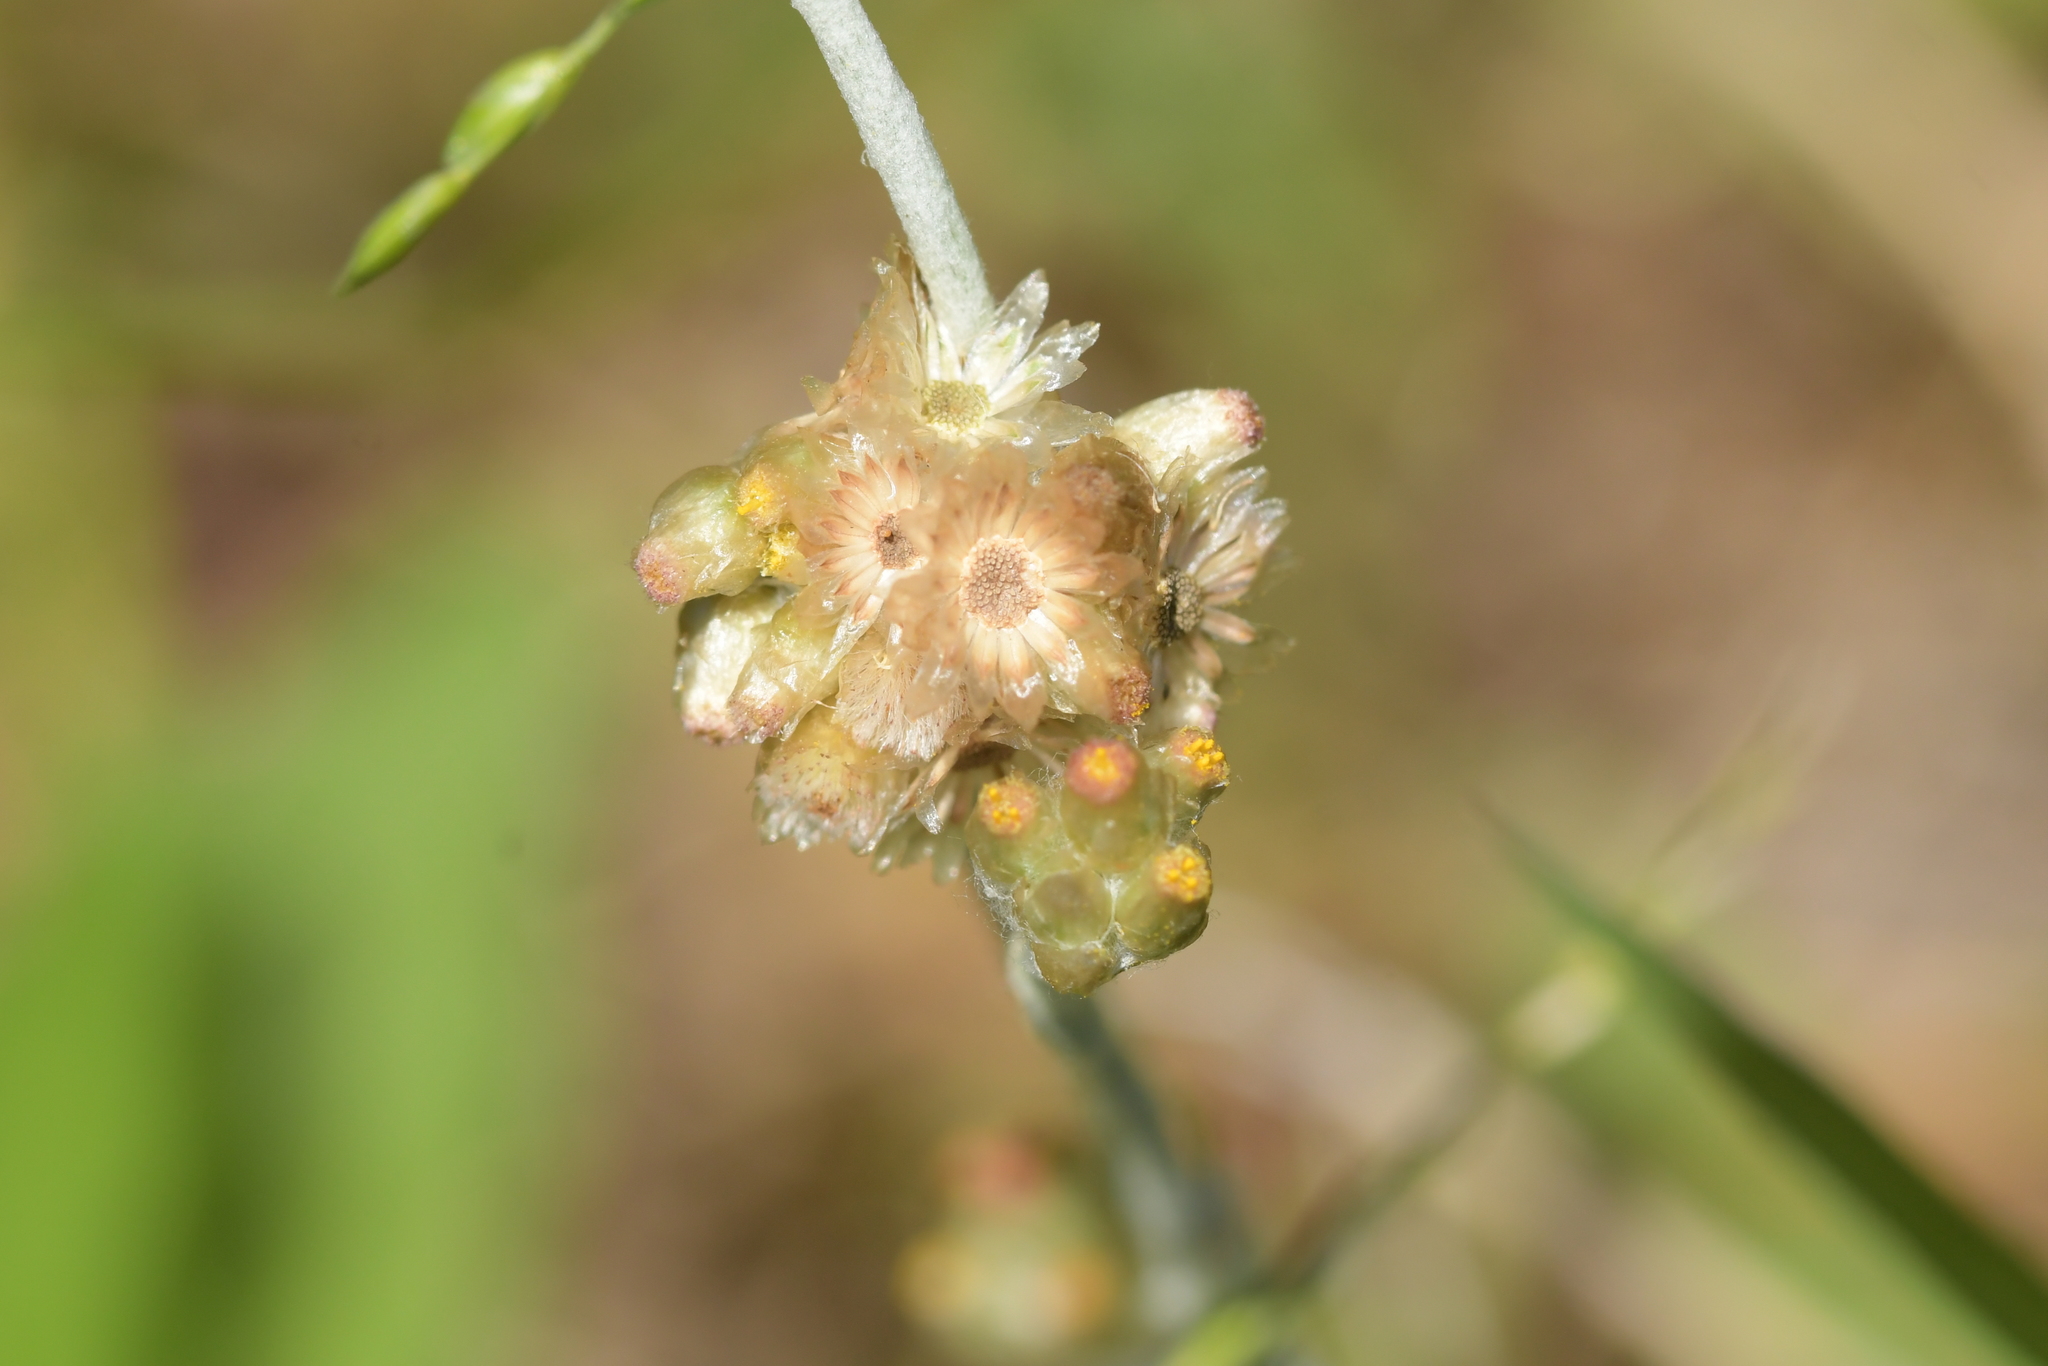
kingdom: Plantae
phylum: Tracheophyta
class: Magnoliopsida
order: Asterales
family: Asteraceae
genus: Helichrysum
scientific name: Helichrysum luteoalbum
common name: Daisy
